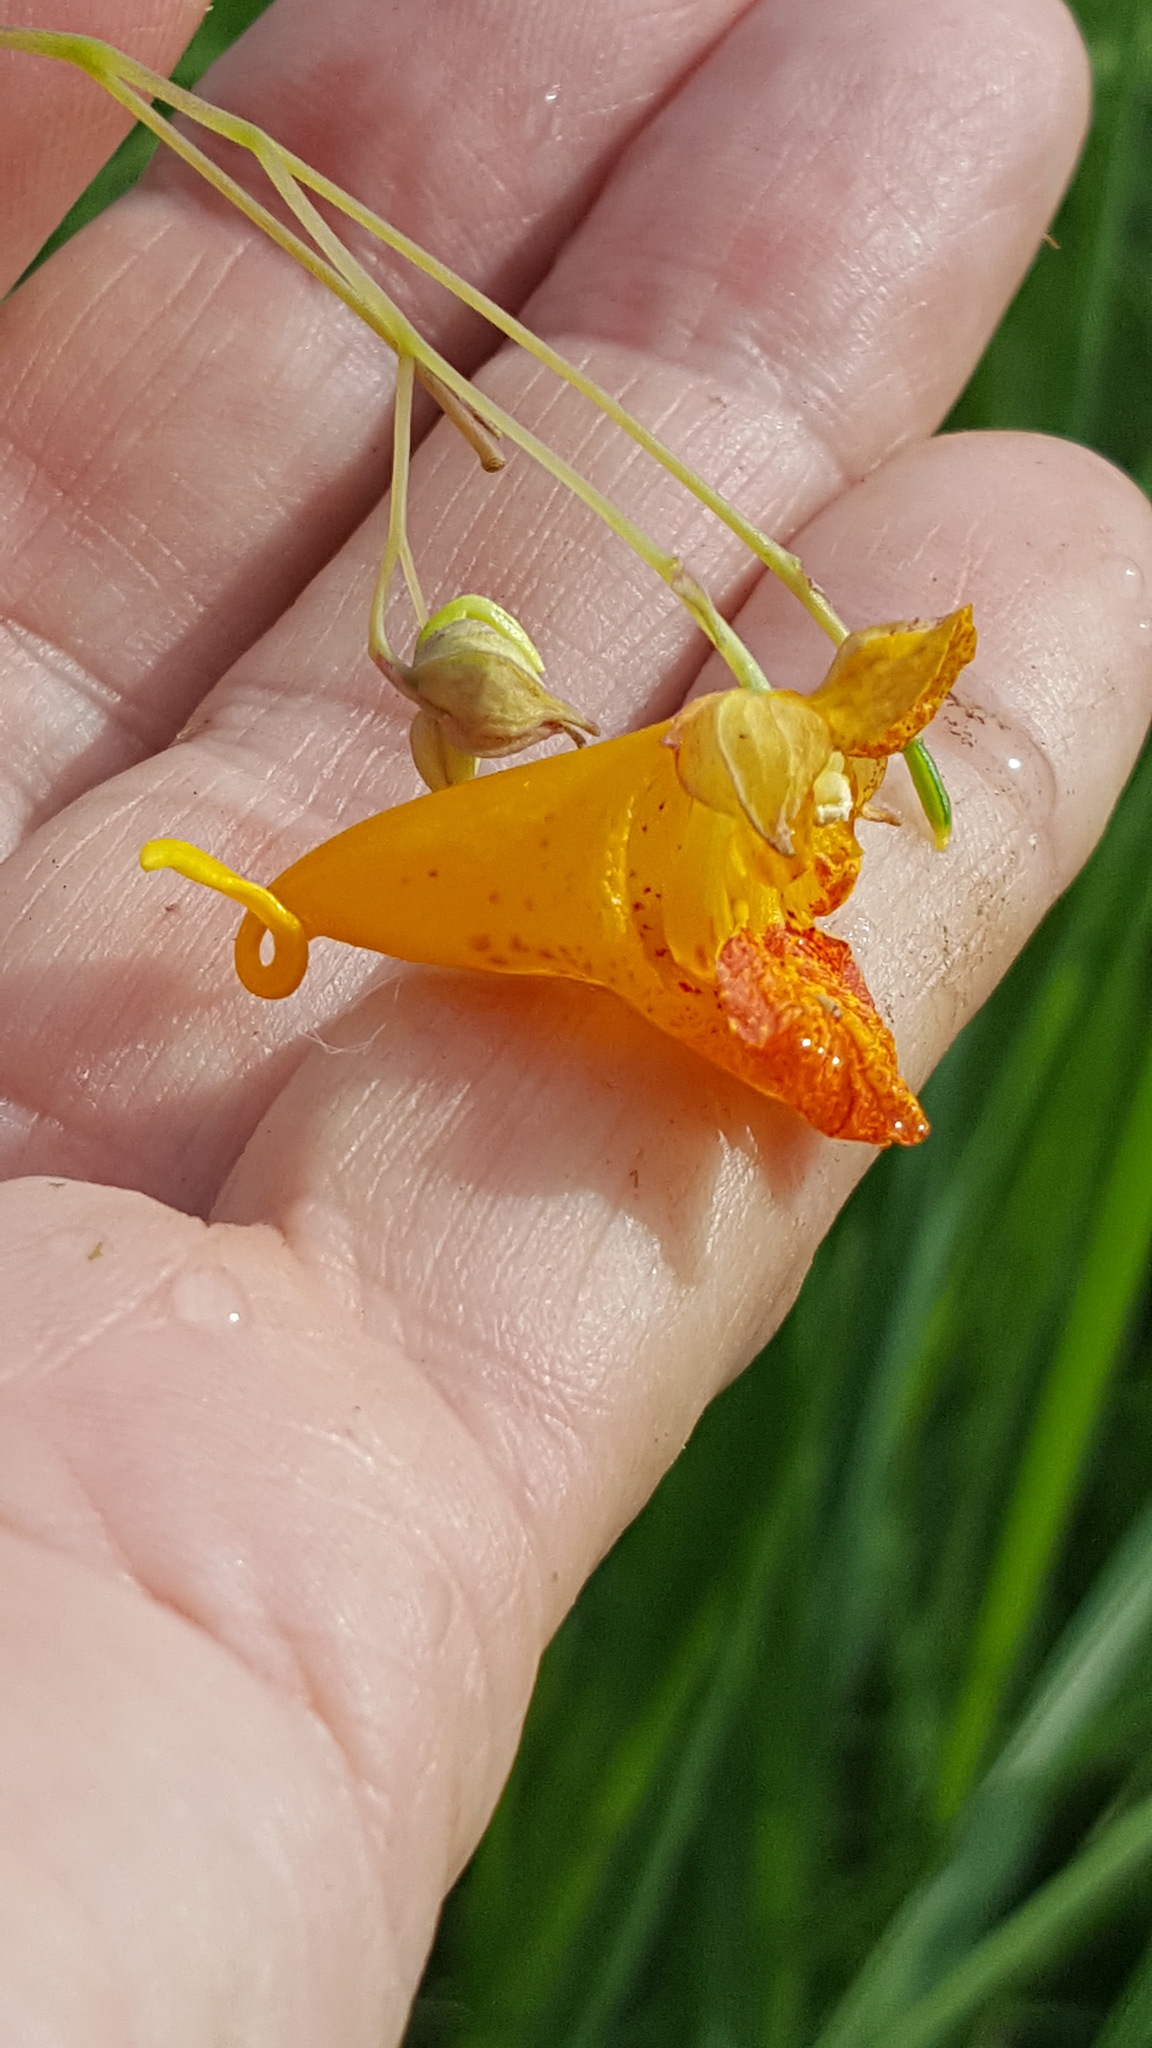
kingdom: Plantae
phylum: Tracheophyta
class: Magnoliopsida
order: Ericales
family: Balsaminaceae
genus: Impatiens
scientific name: Impatiens capensis
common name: Orange balsam
